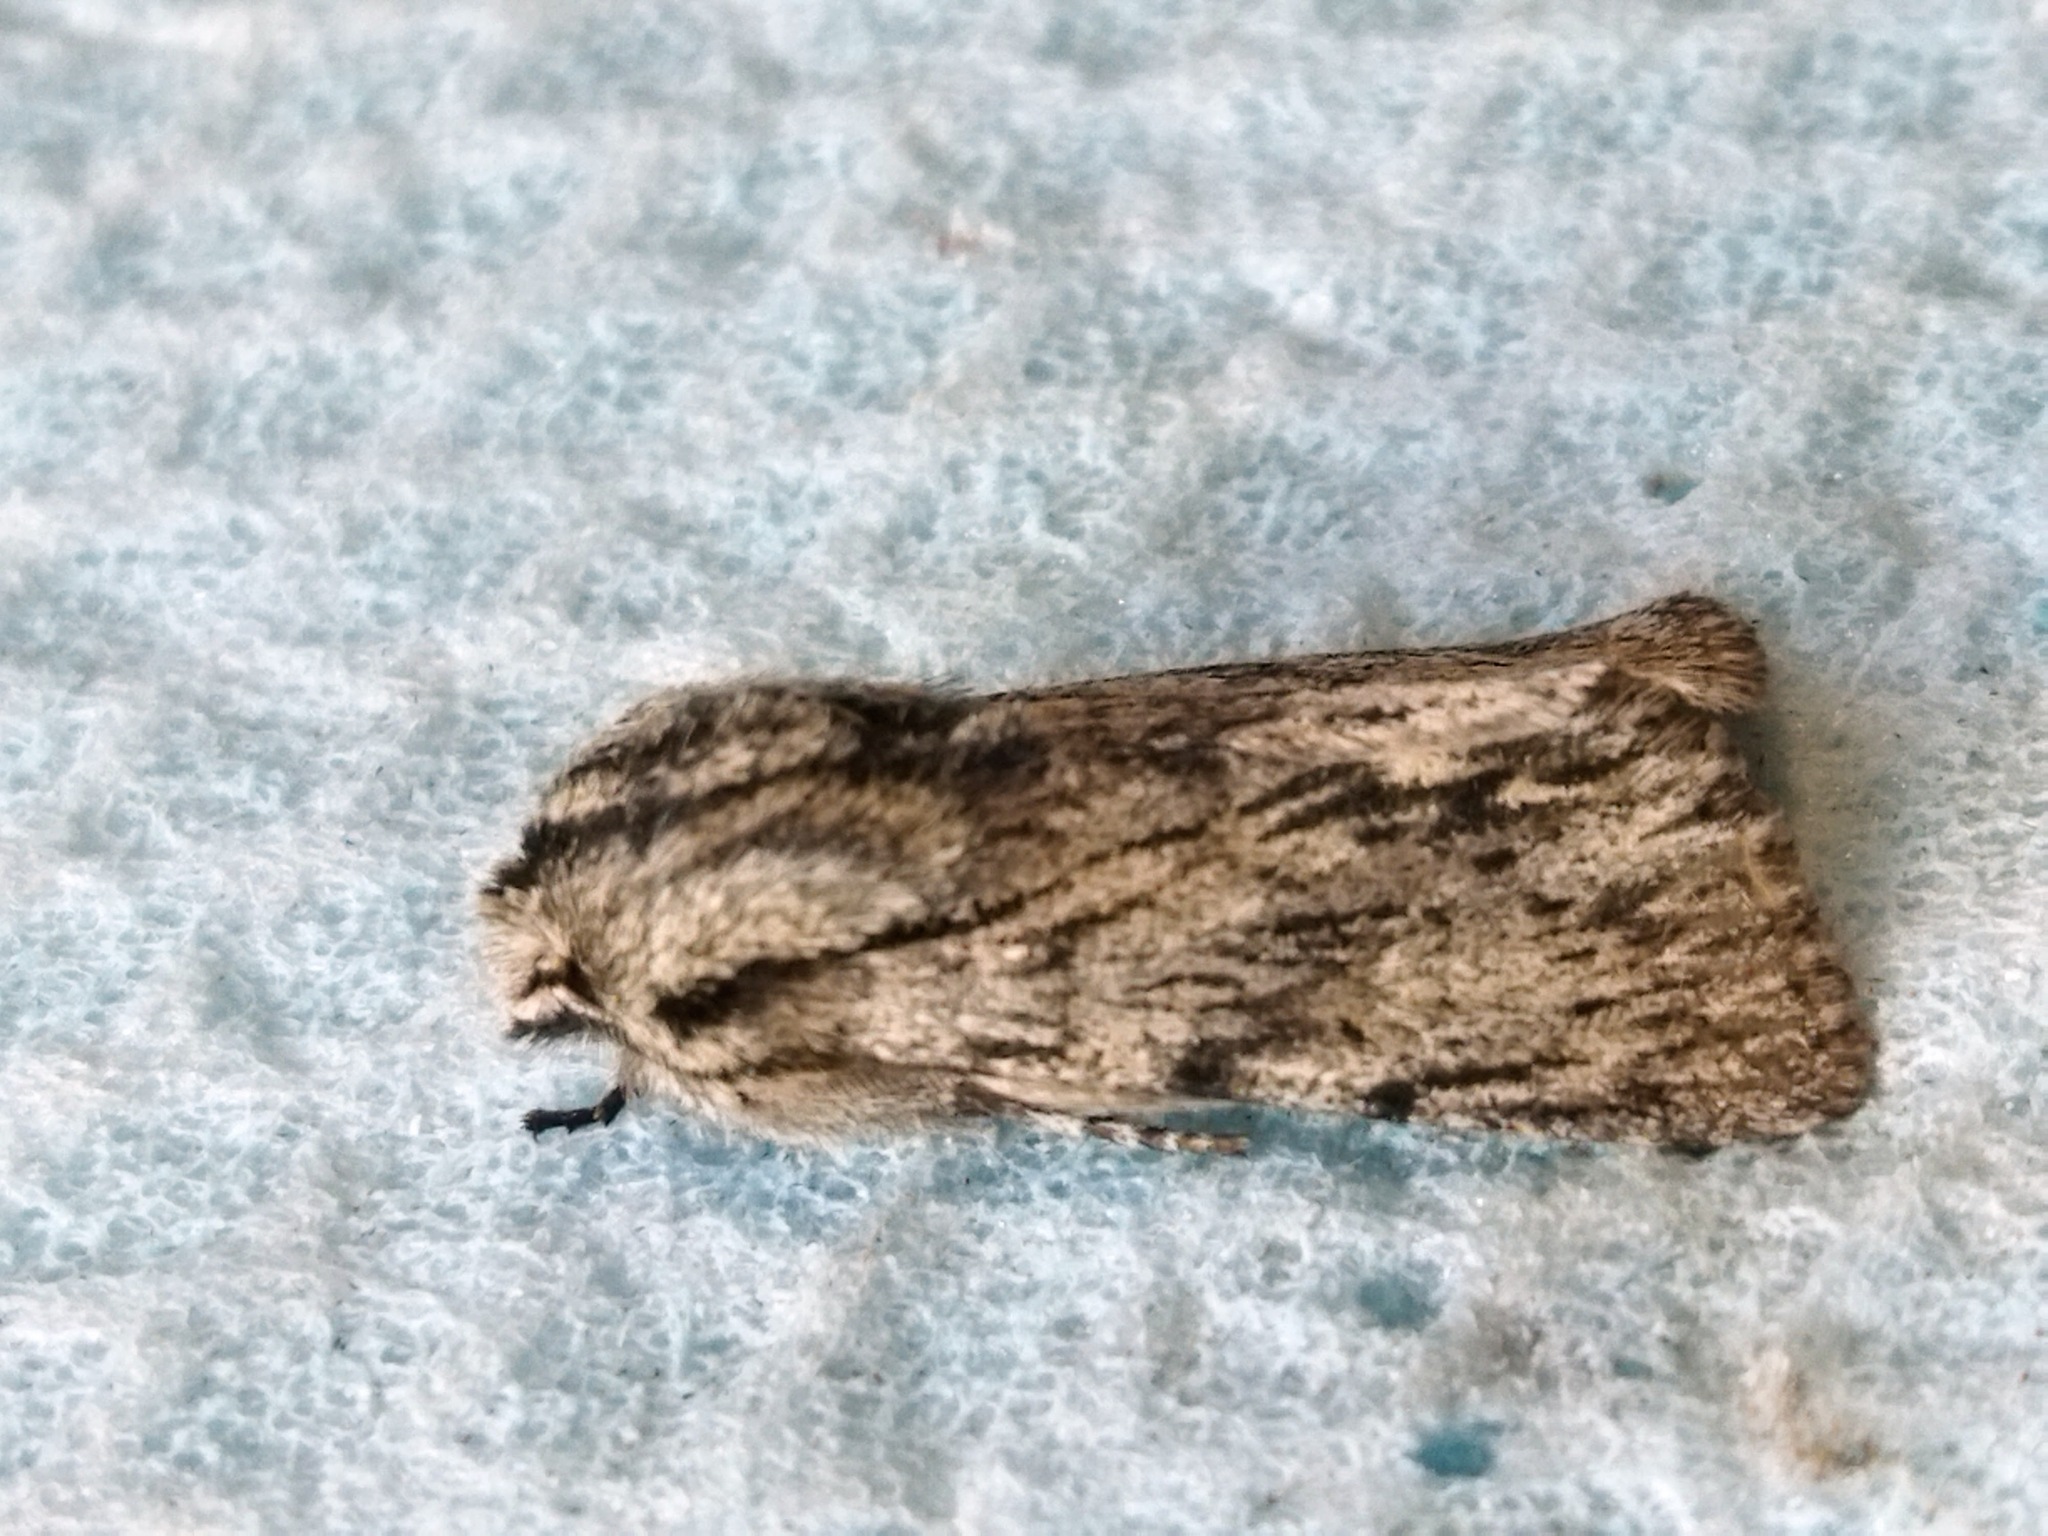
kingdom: Animalia
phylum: Arthropoda
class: Insecta
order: Lepidoptera
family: Noctuidae
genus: Asteroscopus
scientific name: Asteroscopus sphinx
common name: The sprawler
